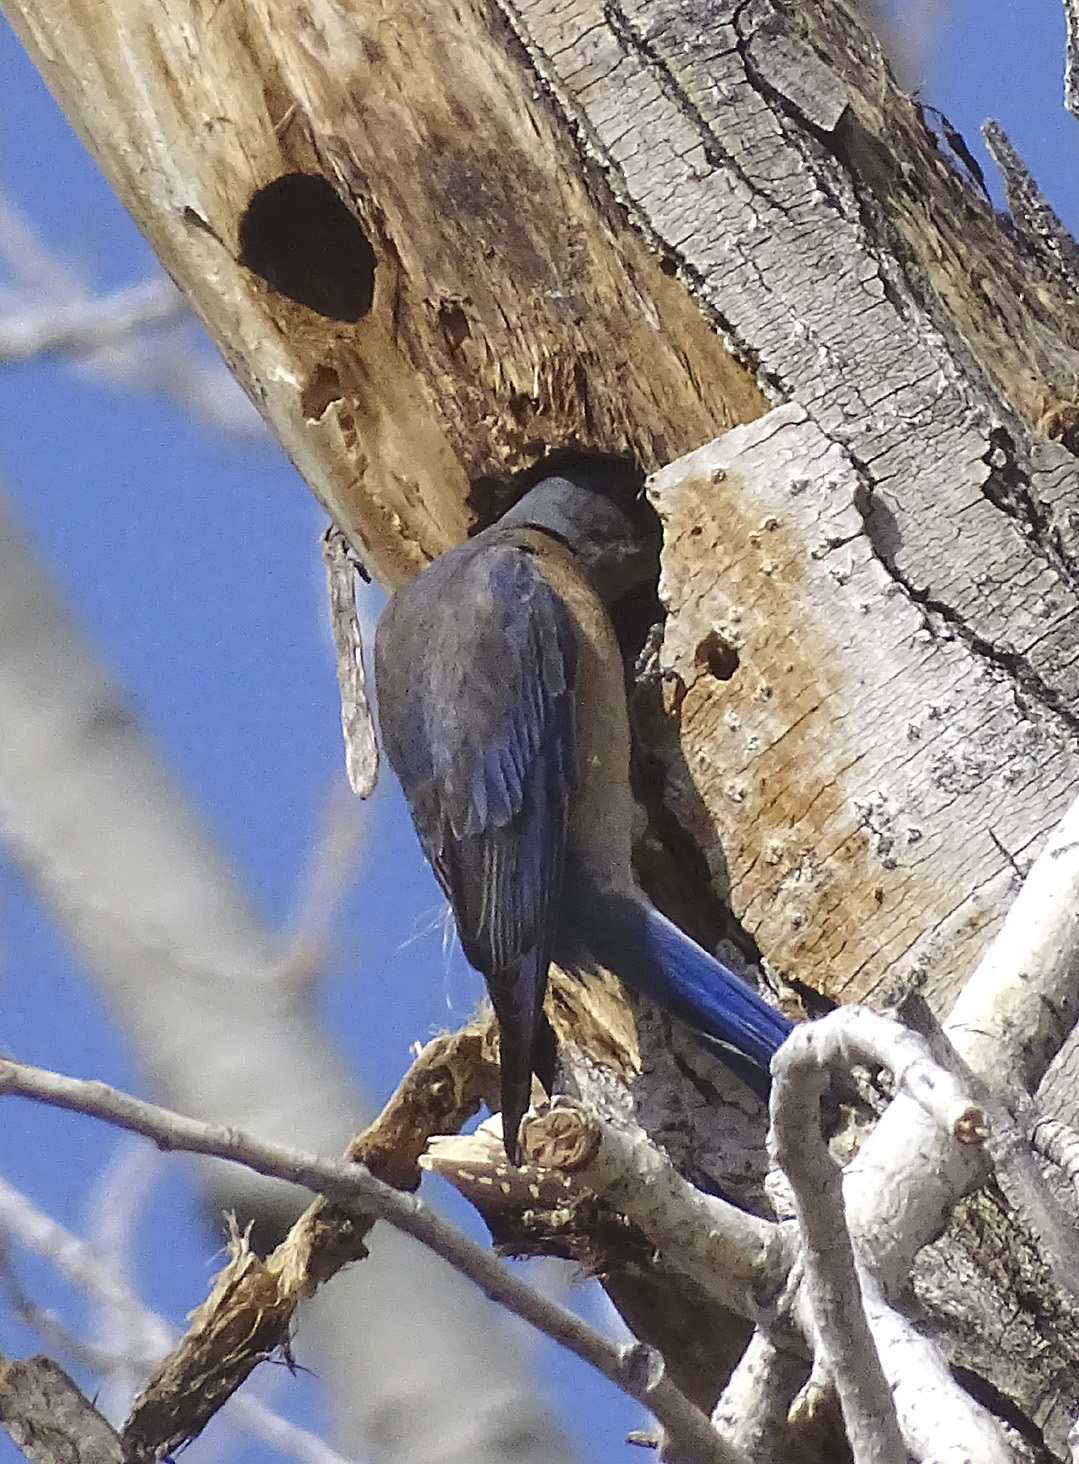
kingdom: Animalia
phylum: Chordata
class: Aves
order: Passeriformes
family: Turdidae
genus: Sialia
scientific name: Sialia mexicana
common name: Western bluebird
